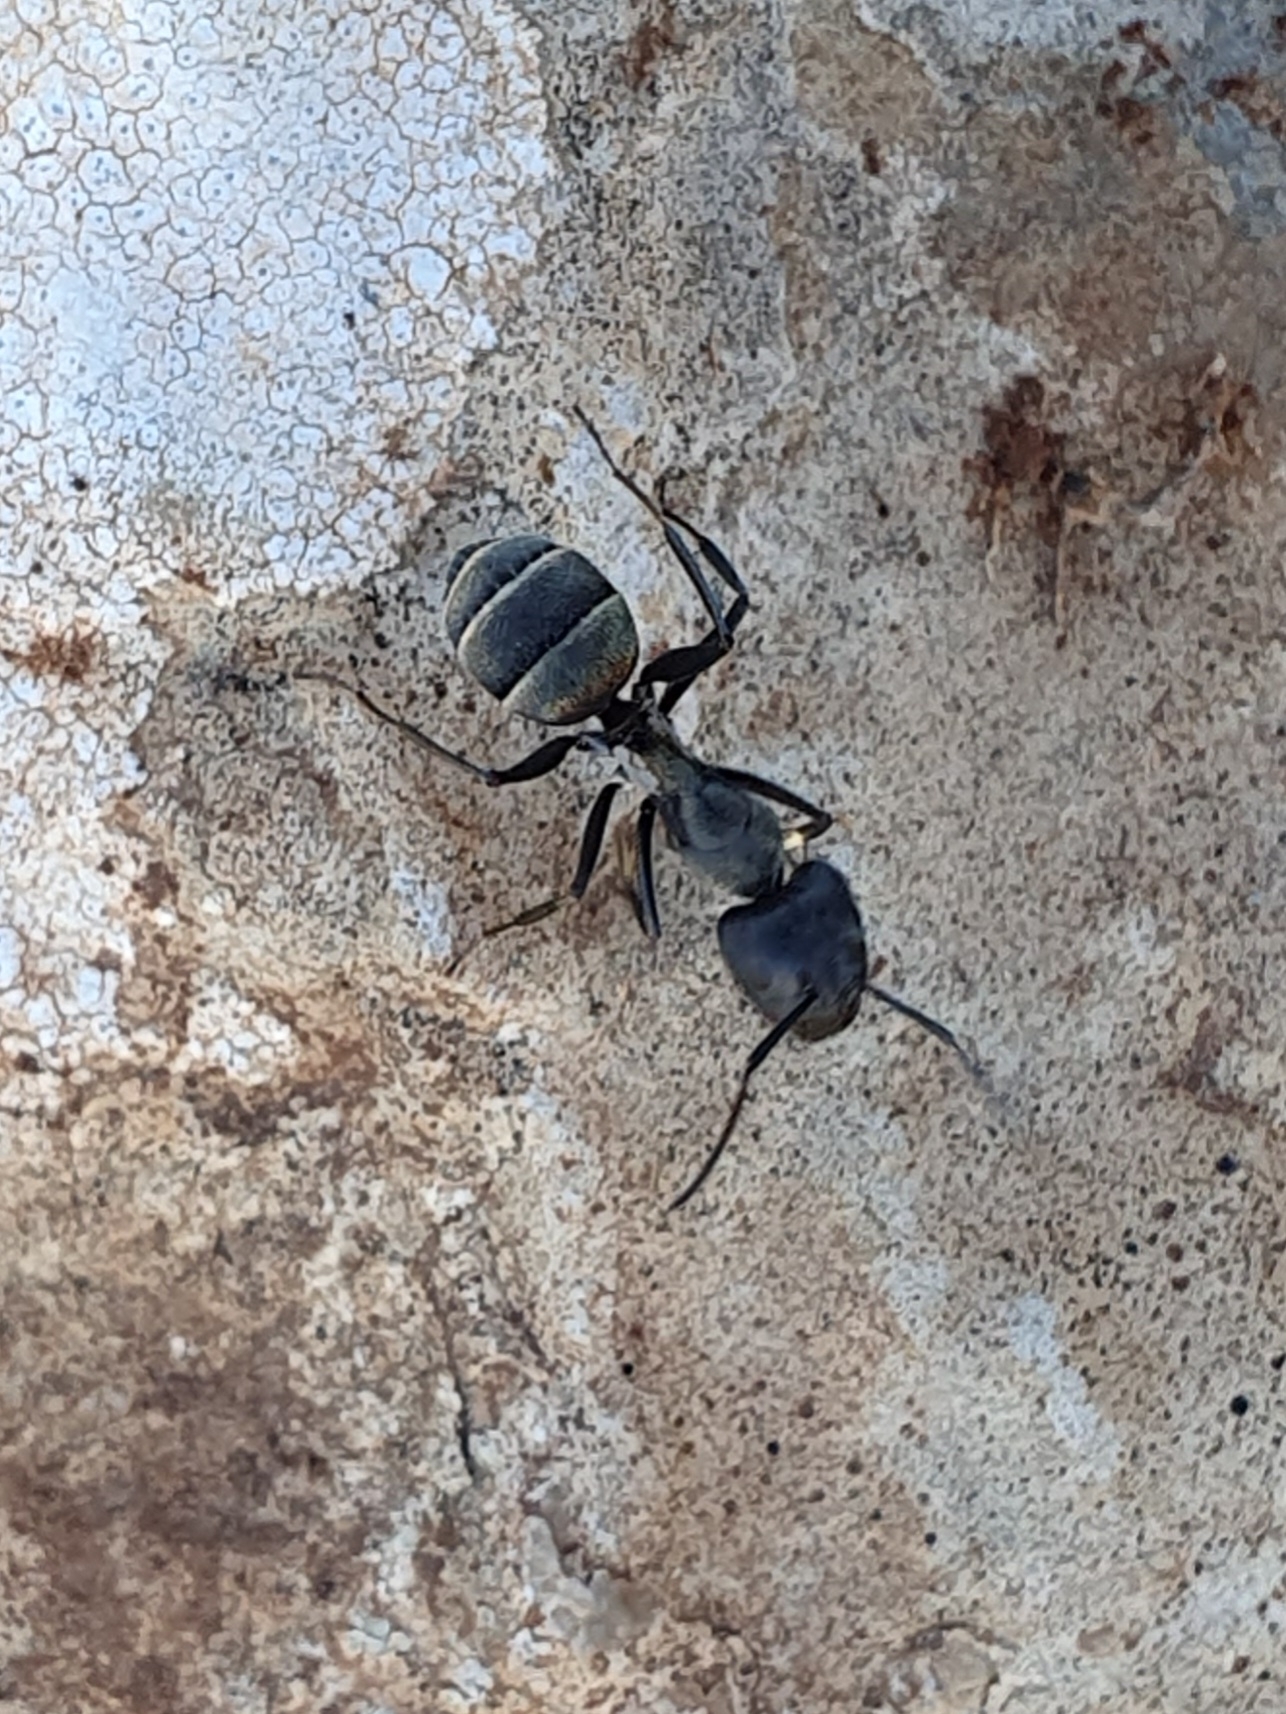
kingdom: Animalia
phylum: Arthropoda
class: Insecta
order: Hymenoptera
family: Formicidae
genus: Camponotus
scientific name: Camponotus micans
